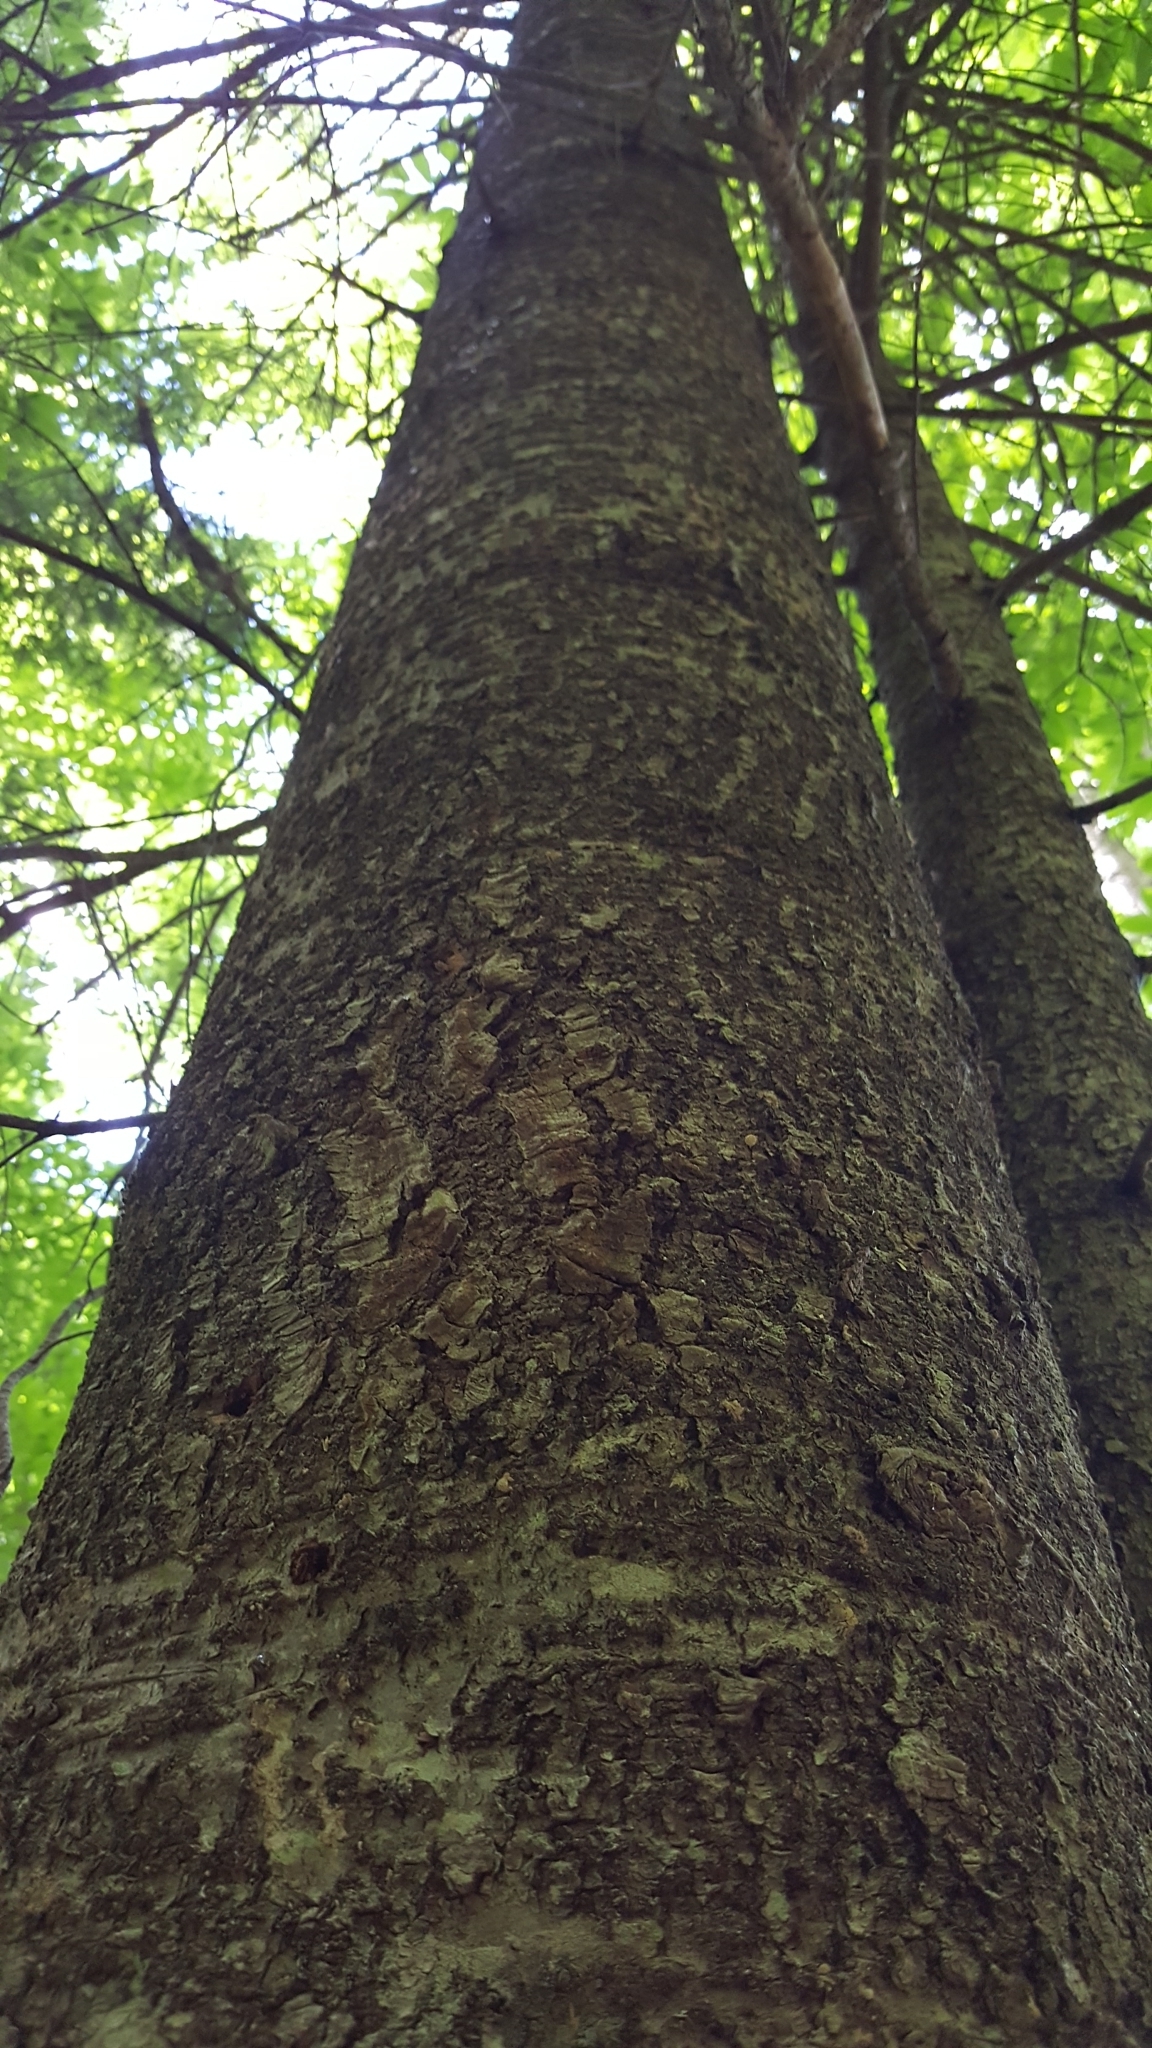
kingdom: Plantae
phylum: Tracheophyta
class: Pinopsida
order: Pinales
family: Pinaceae
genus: Abies
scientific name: Abies balsamea
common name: Balsam fir
